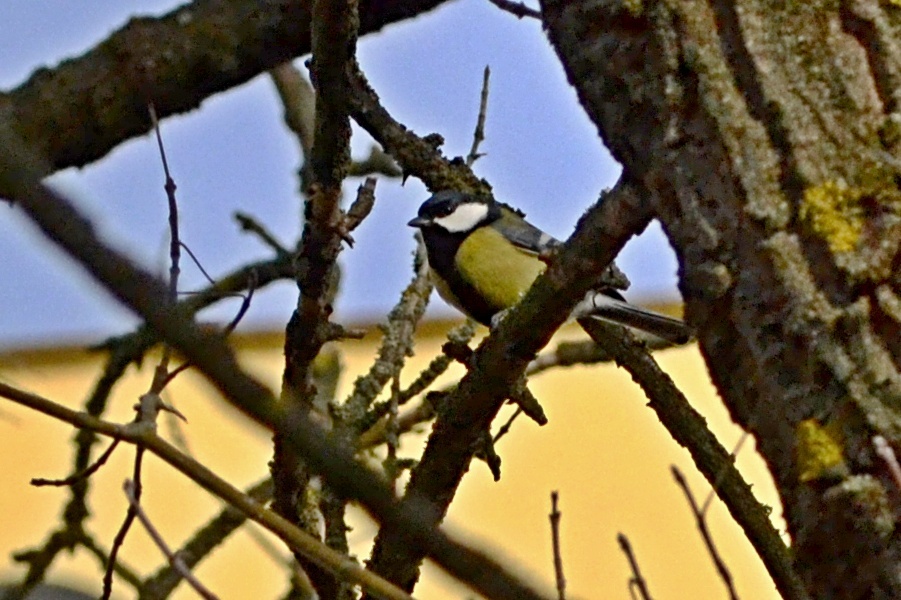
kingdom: Animalia
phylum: Chordata
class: Aves
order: Passeriformes
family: Paridae
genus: Parus
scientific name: Parus major
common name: Great tit
